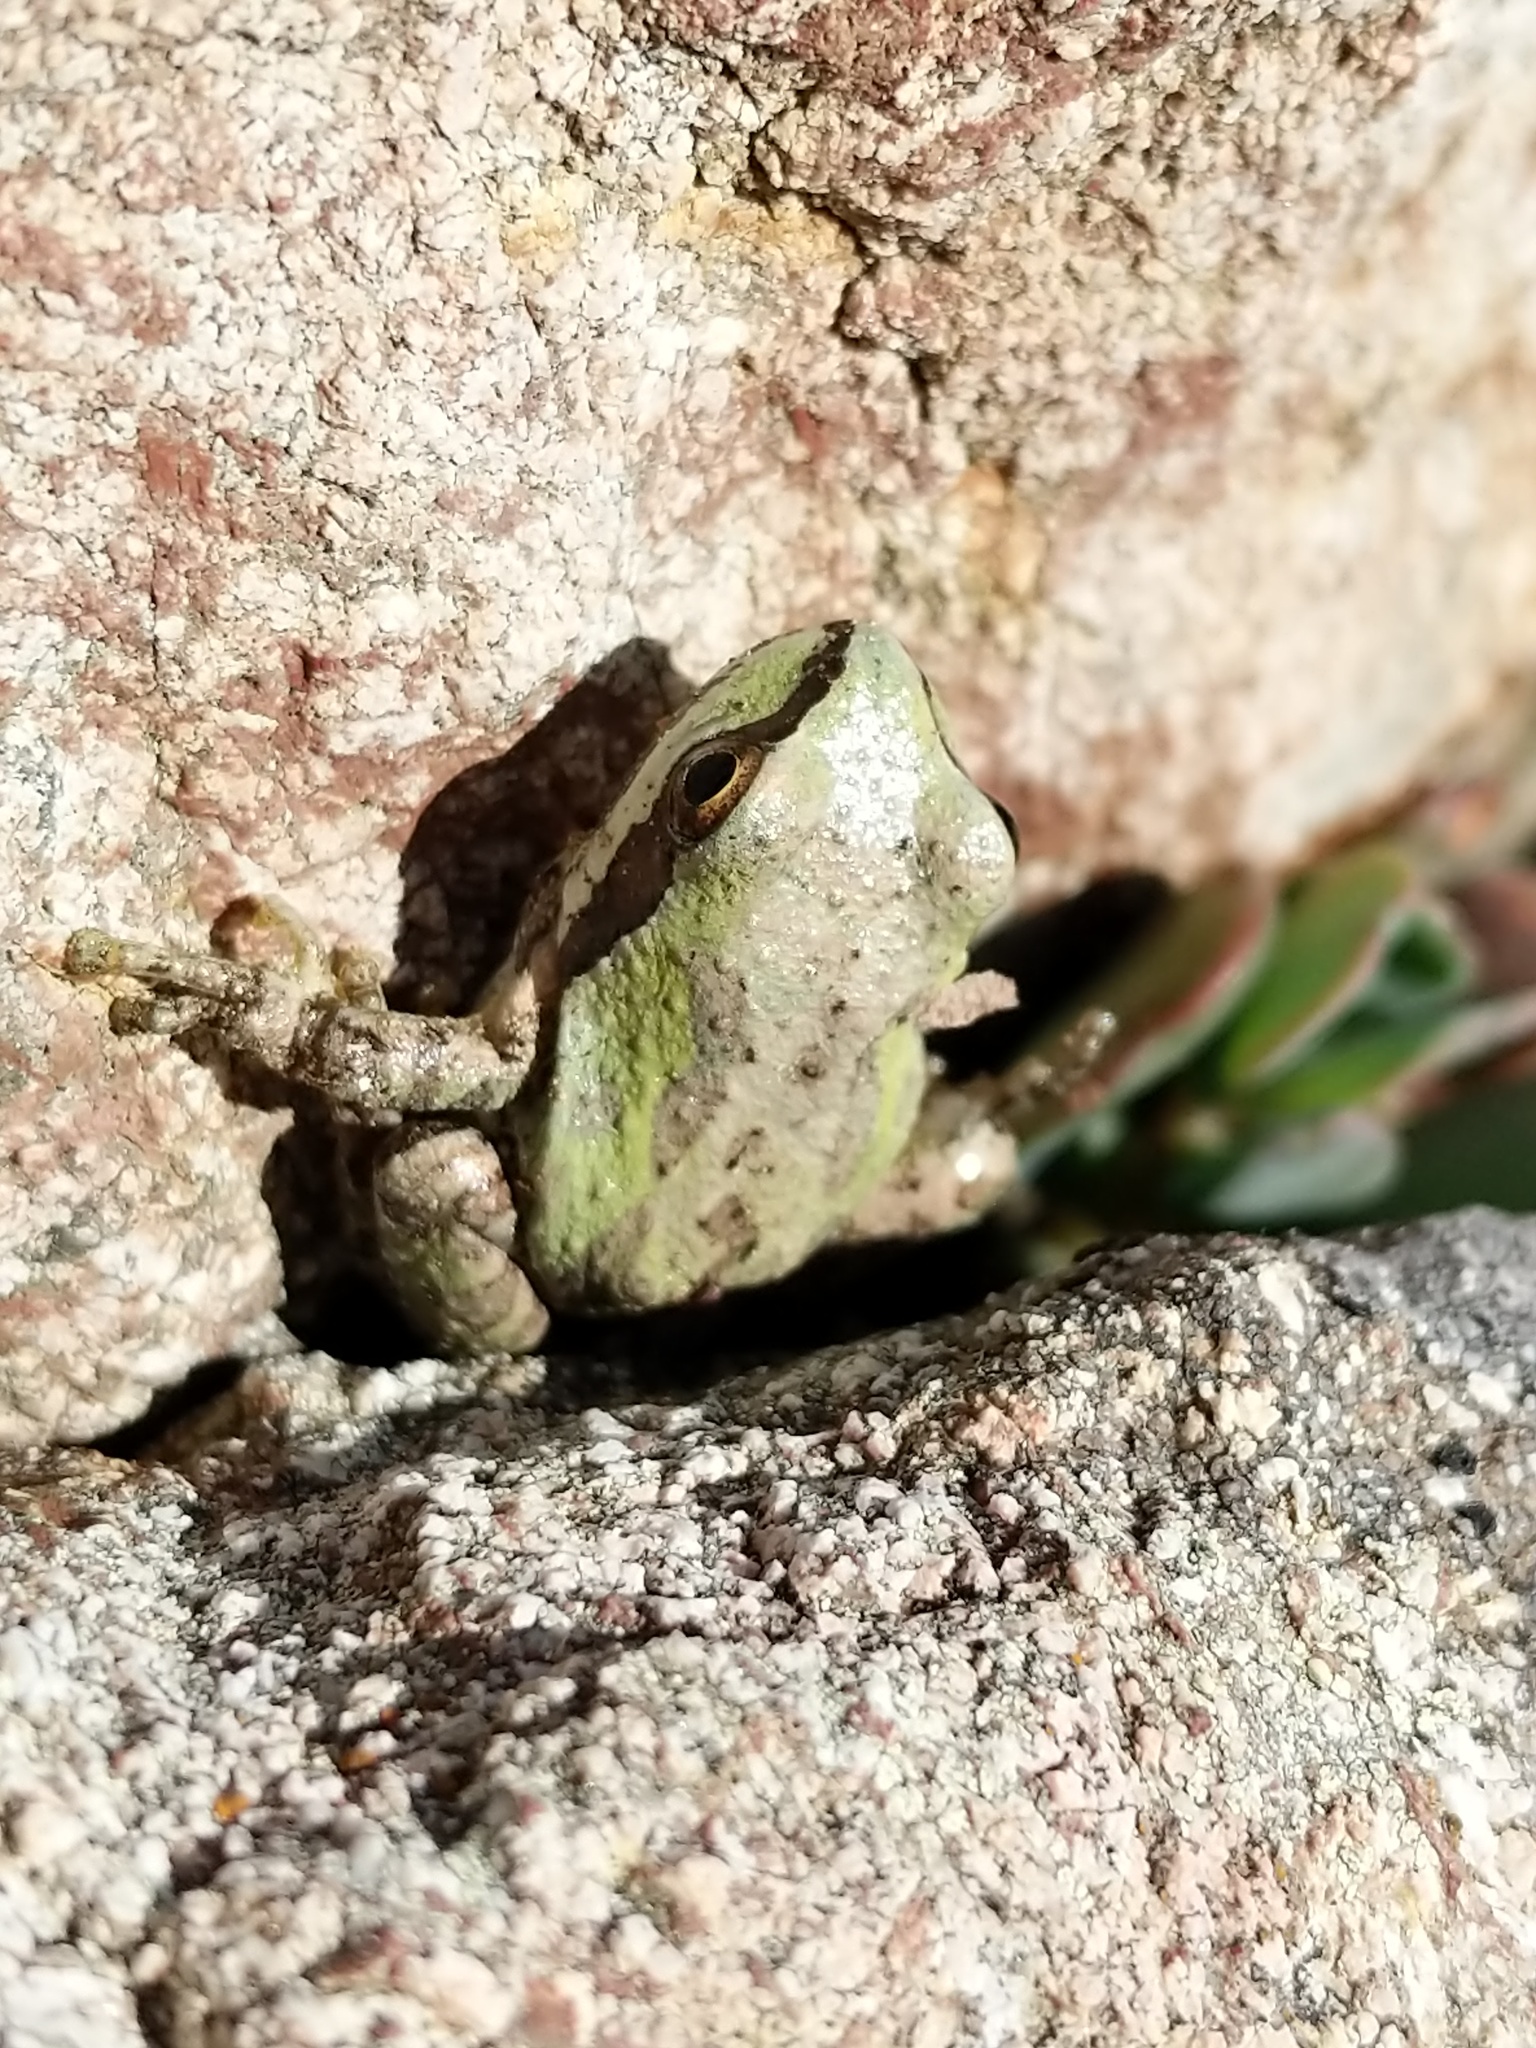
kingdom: Animalia
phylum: Chordata
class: Amphibia
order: Anura
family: Hylidae
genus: Pseudacris
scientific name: Pseudacris regilla
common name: Pacific chorus frog
